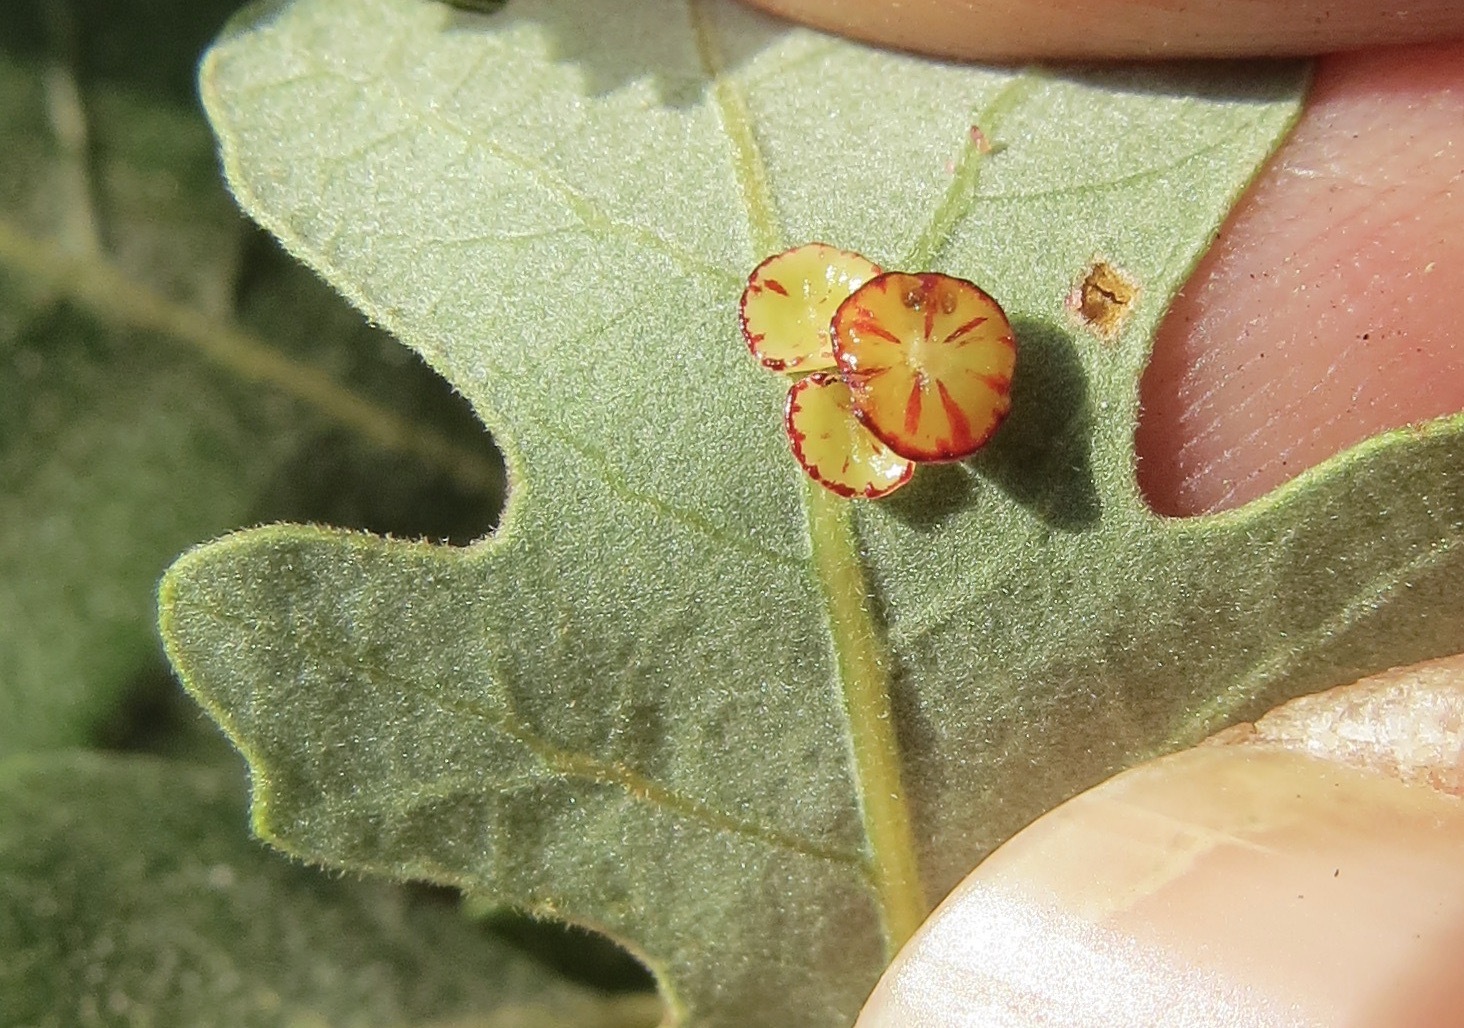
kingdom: Animalia
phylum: Arthropoda
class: Insecta
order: Hymenoptera
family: Cynipidae
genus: Andricus
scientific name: Andricus
